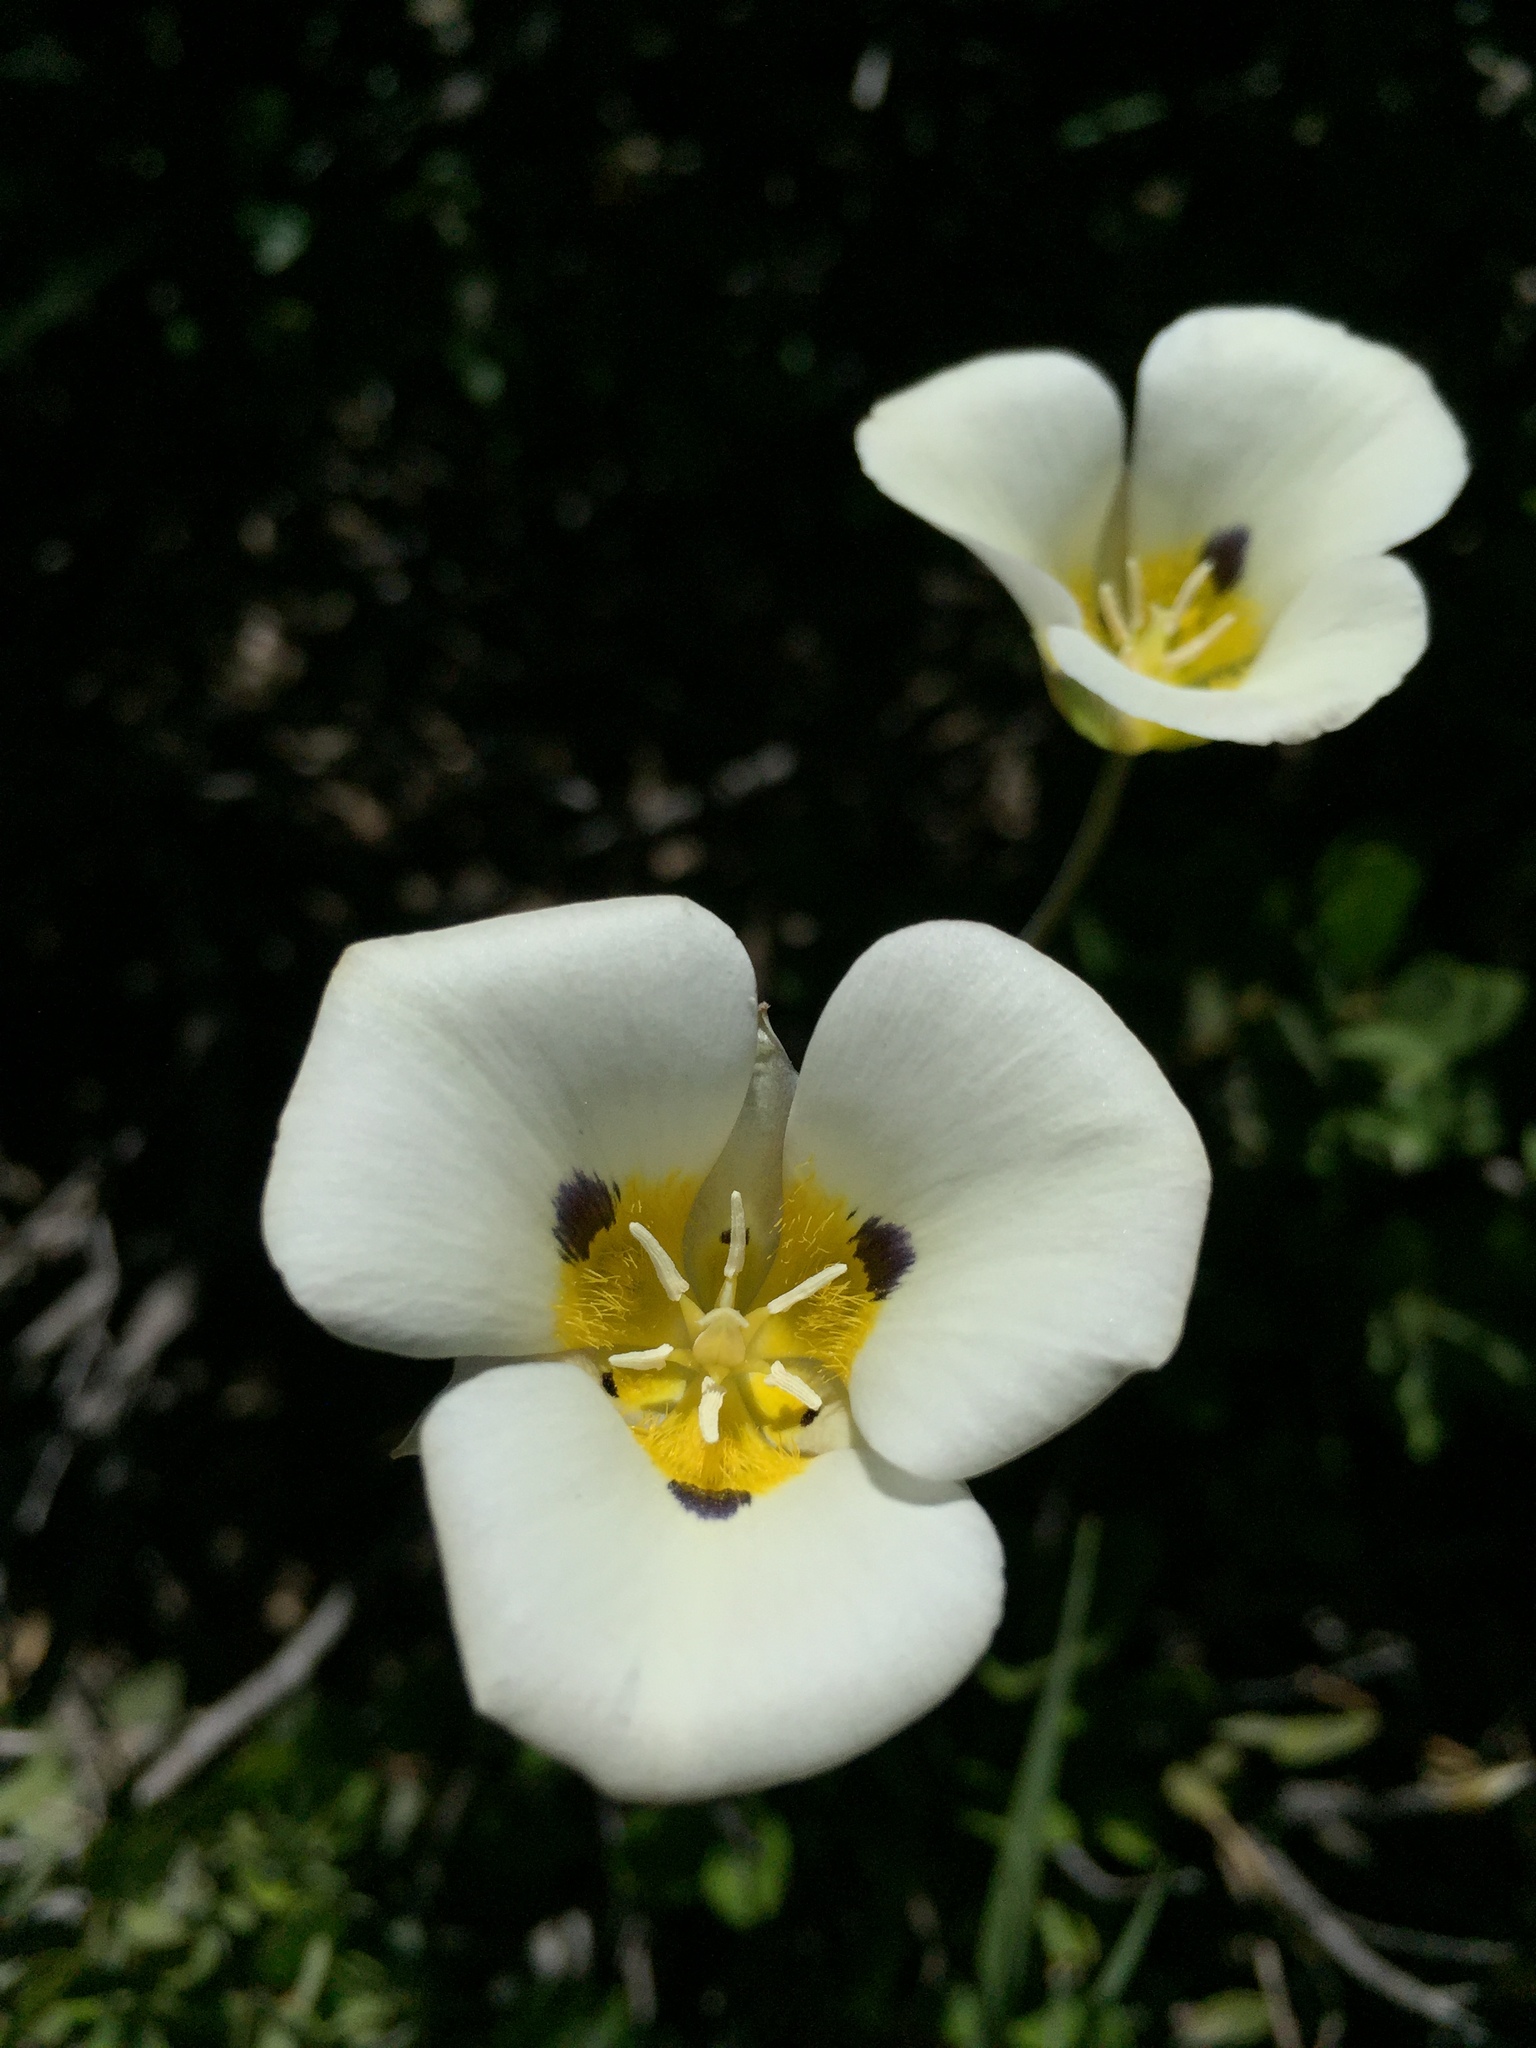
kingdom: Plantae
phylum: Tracheophyta
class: Liliopsida
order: Liliales
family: Liliaceae
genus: Calochortus
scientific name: Calochortus leichtlinii
